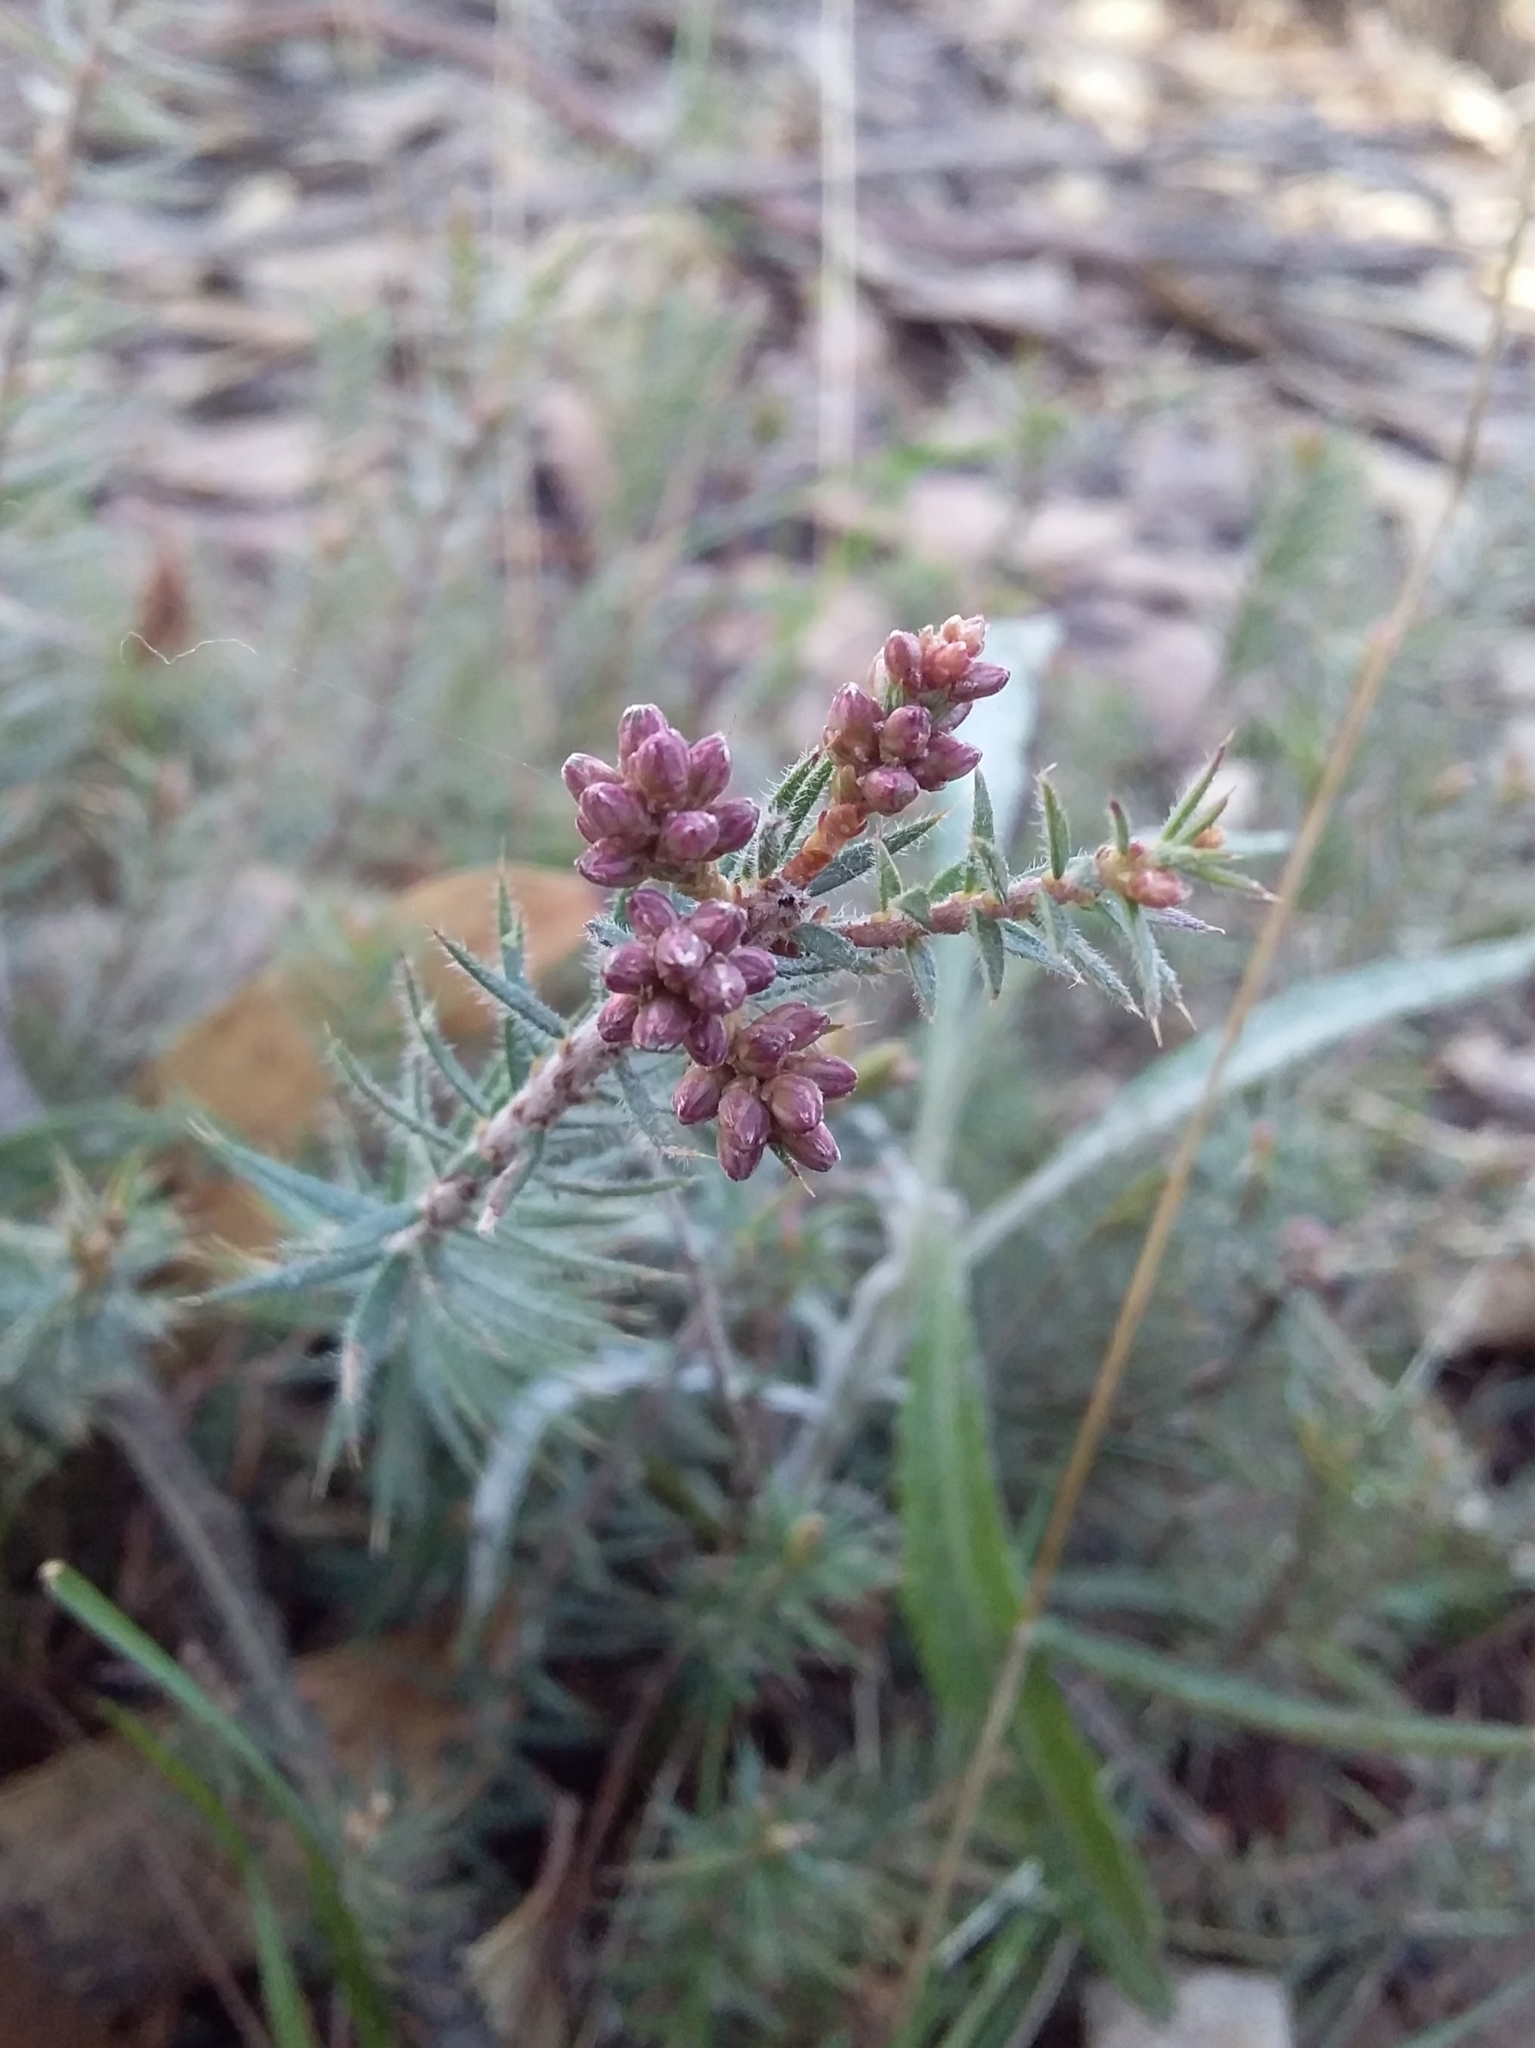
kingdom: Plantae
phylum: Tracheophyta
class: Magnoliopsida
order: Ericales
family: Ericaceae
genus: Acrotriche
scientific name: Acrotriche serrulata
